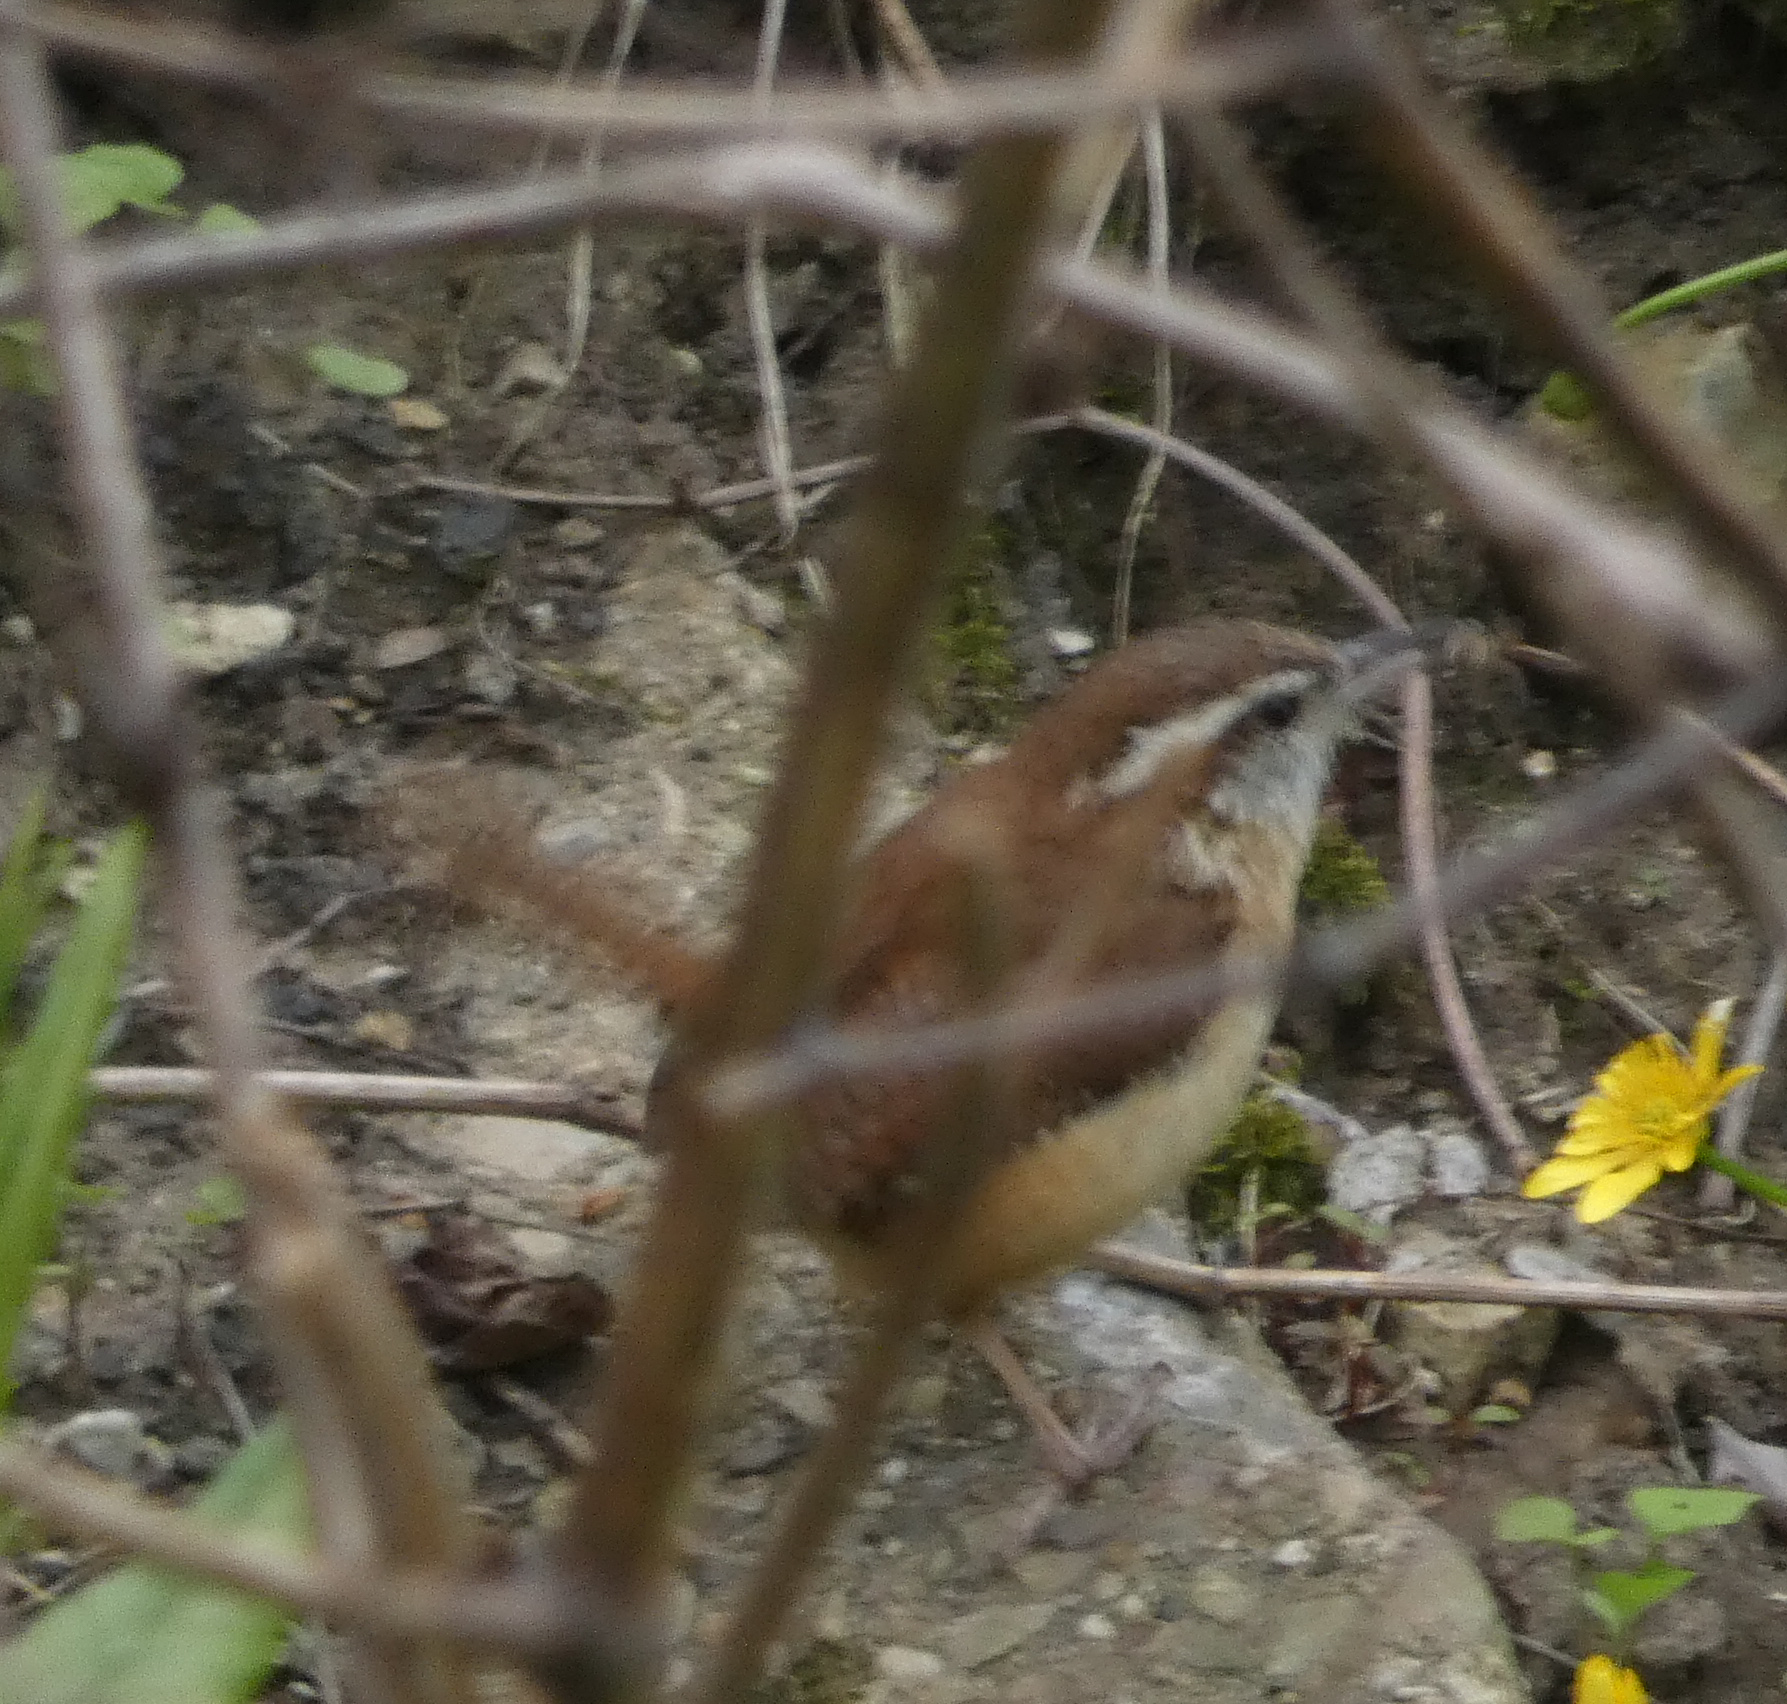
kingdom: Animalia
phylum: Chordata
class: Aves
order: Passeriformes
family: Troglodytidae
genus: Thryothorus
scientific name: Thryothorus ludovicianus
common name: Carolina wren
